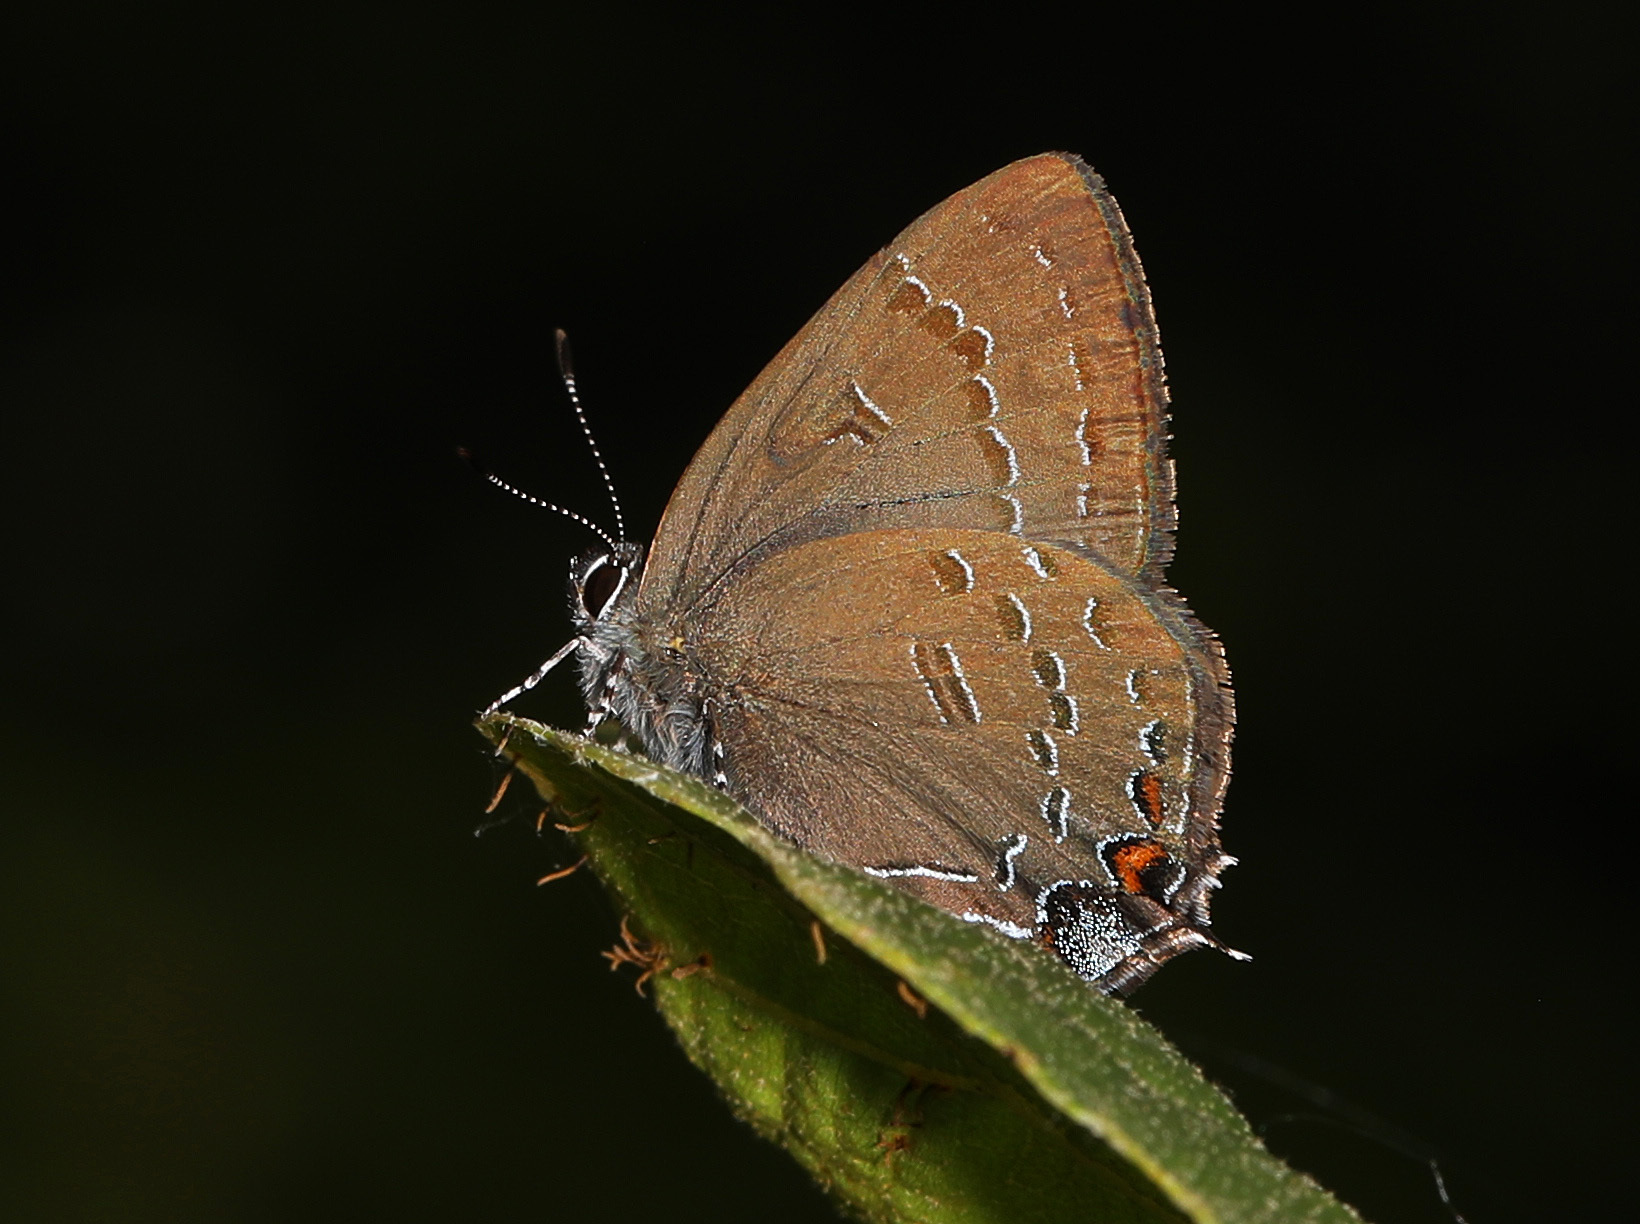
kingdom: Animalia
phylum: Arthropoda
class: Insecta
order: Lepidoptera
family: Lycaenidae
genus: Satyrium
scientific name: Satyrium calanus
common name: Banded hairstreak
